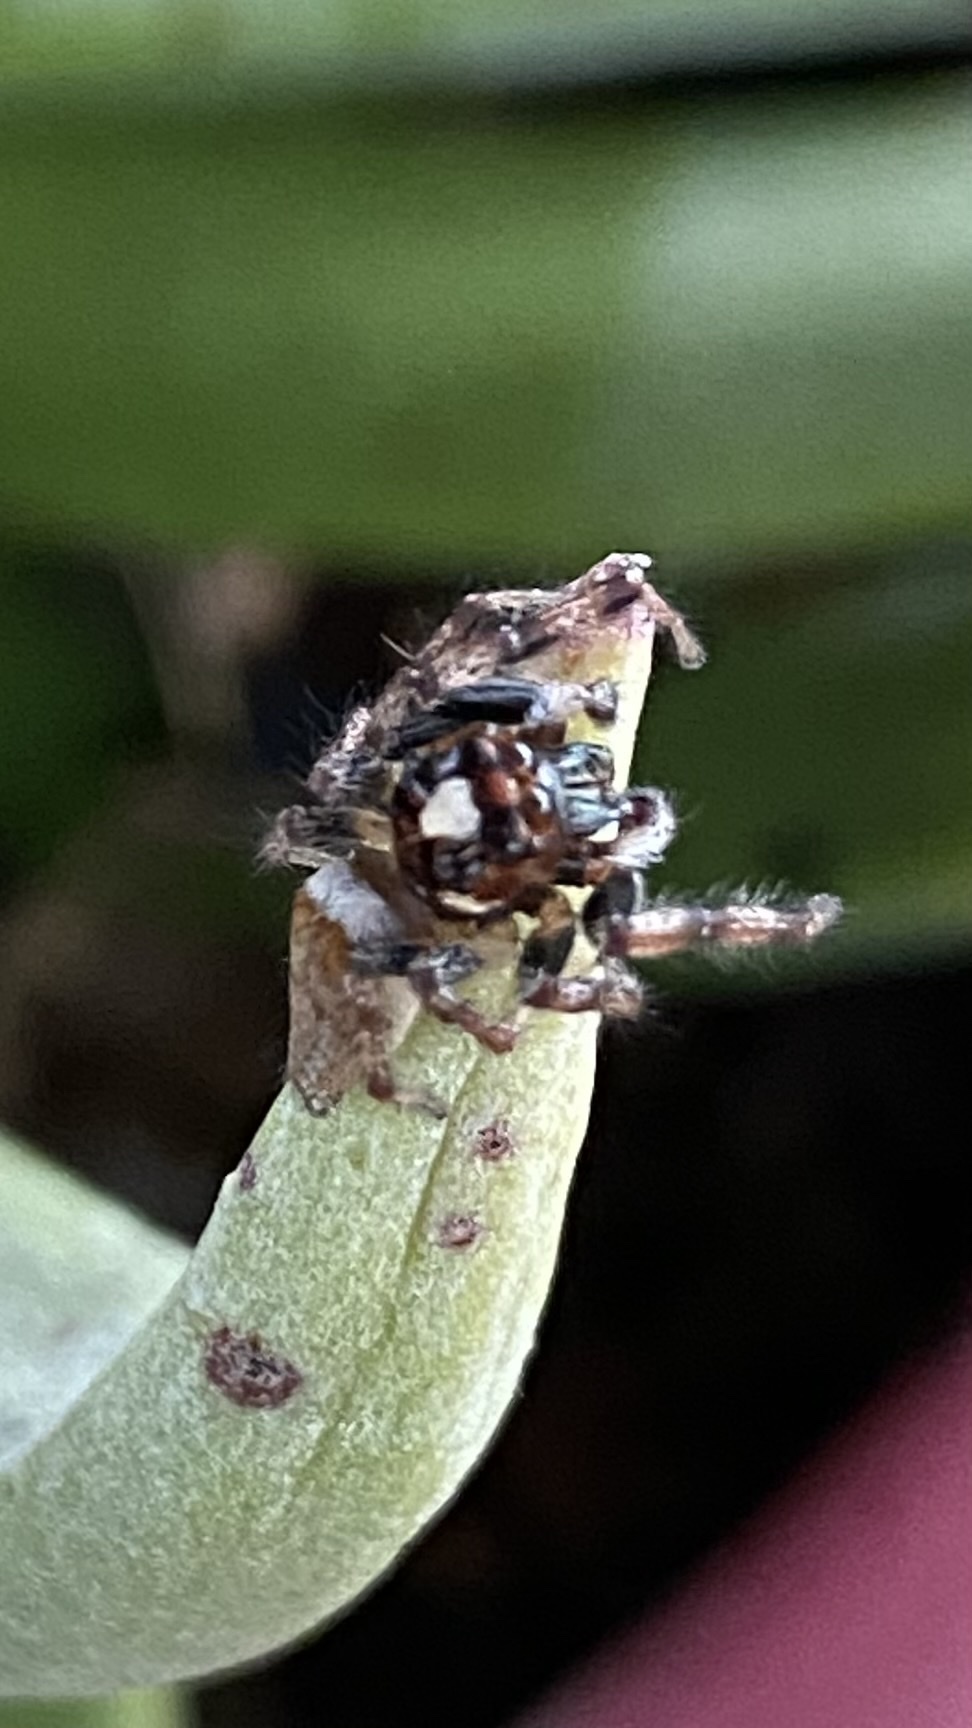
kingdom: Animalia
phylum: Arthropoda
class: Arachnida
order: Araneae
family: Salticidae
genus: Colonus
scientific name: Colonus hesperus
